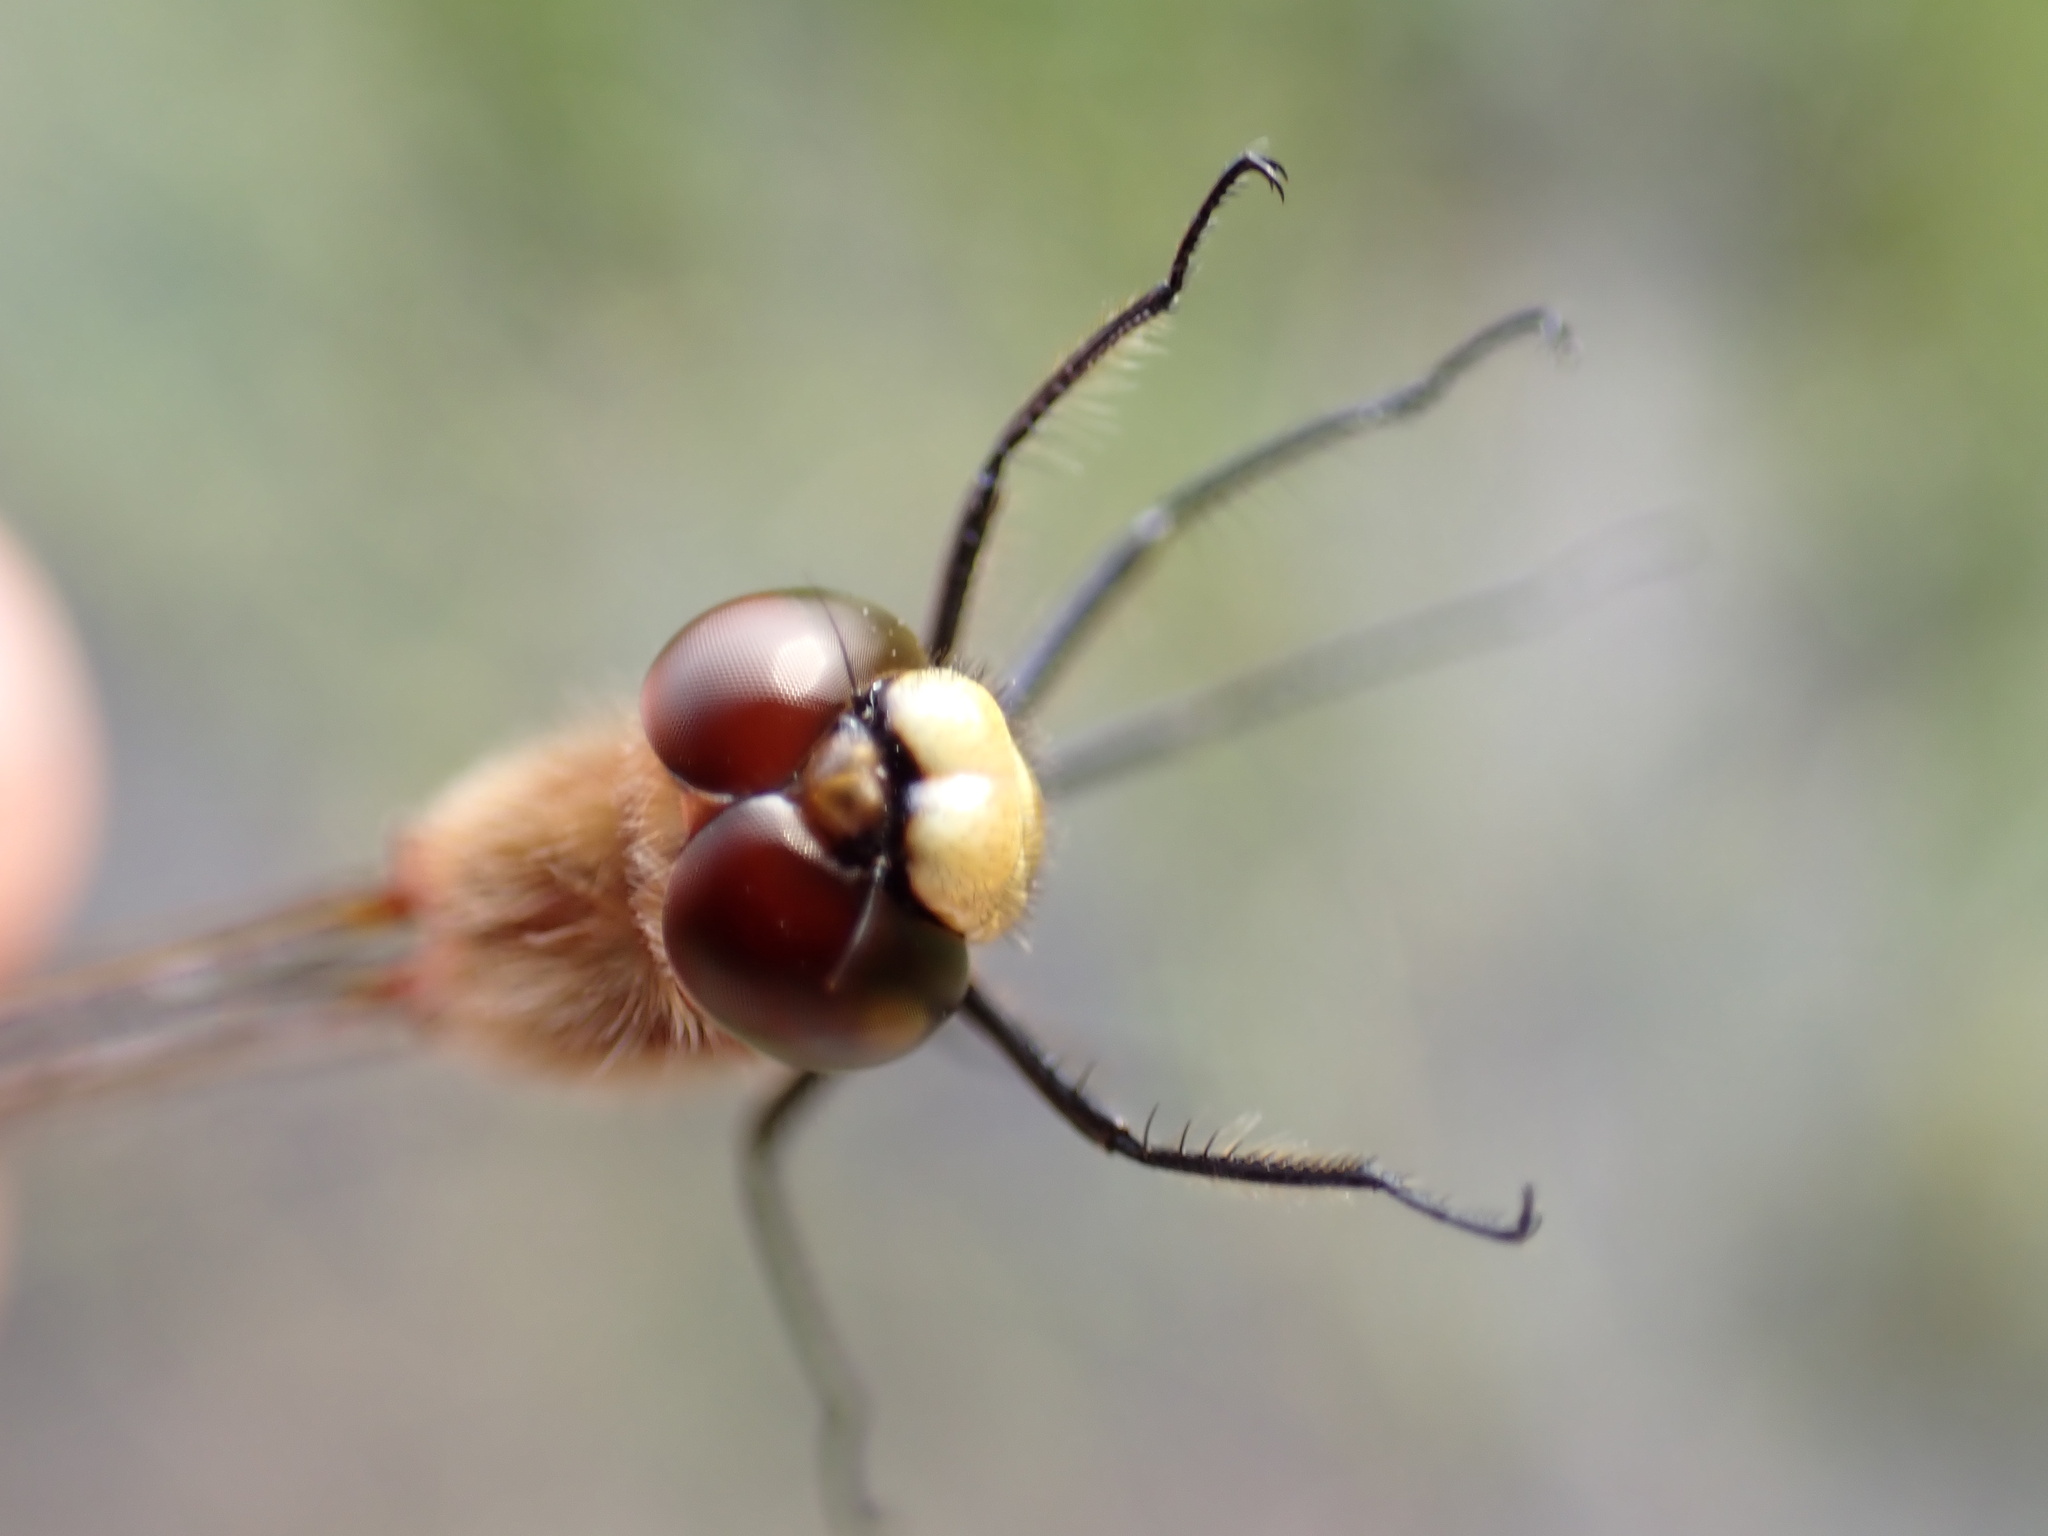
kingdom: Animalia
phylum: Arthropoda
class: Insecta
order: Odonata
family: Libellulidae
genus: Sympetrum
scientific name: Sympetrum obtrusum
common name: White-faced meadowhawk
